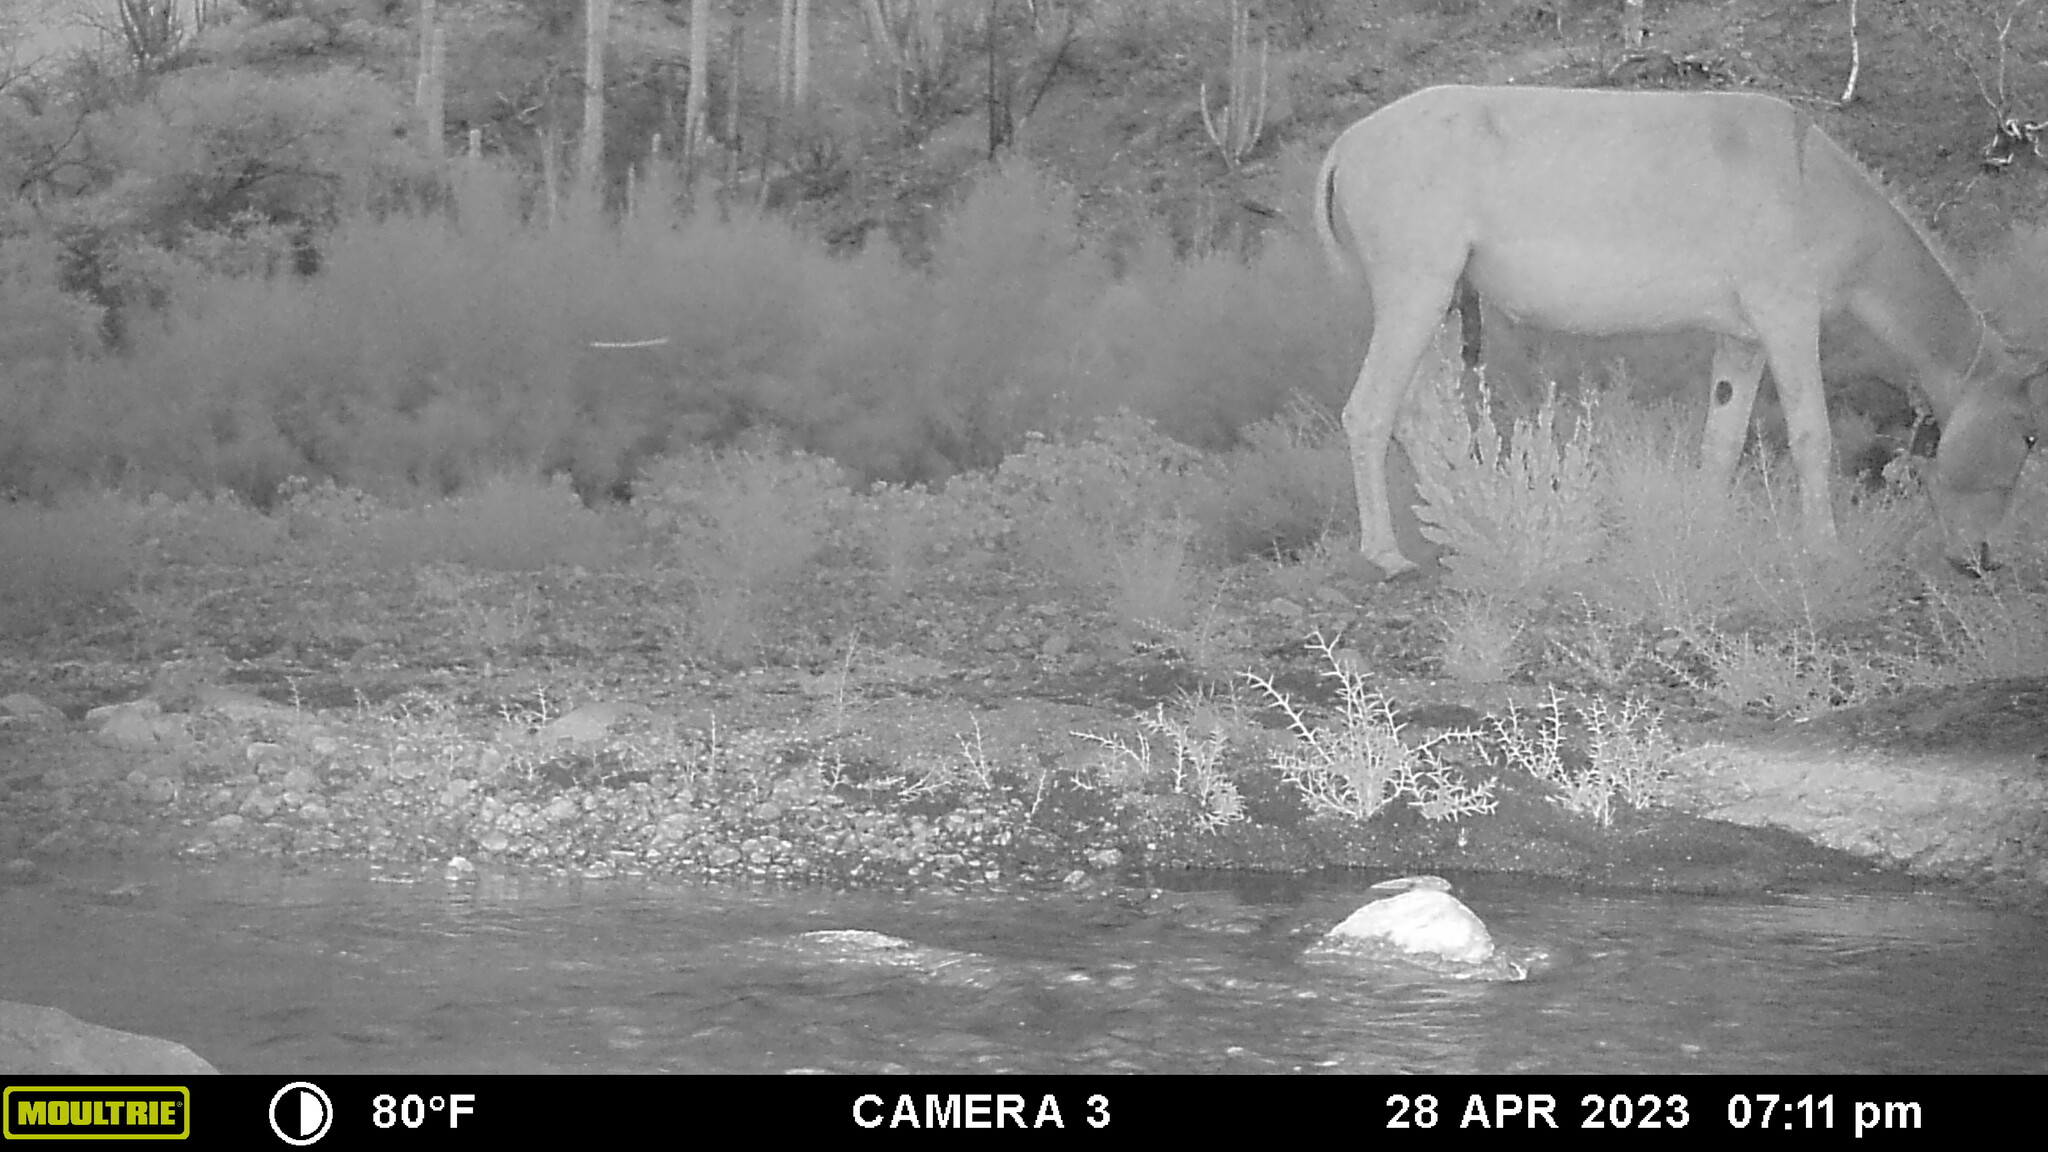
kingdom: Animalia
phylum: Chordata
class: Mammalia
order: Perissodactyla
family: Equidae
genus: Equus
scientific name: Equus asinus
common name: Ass
